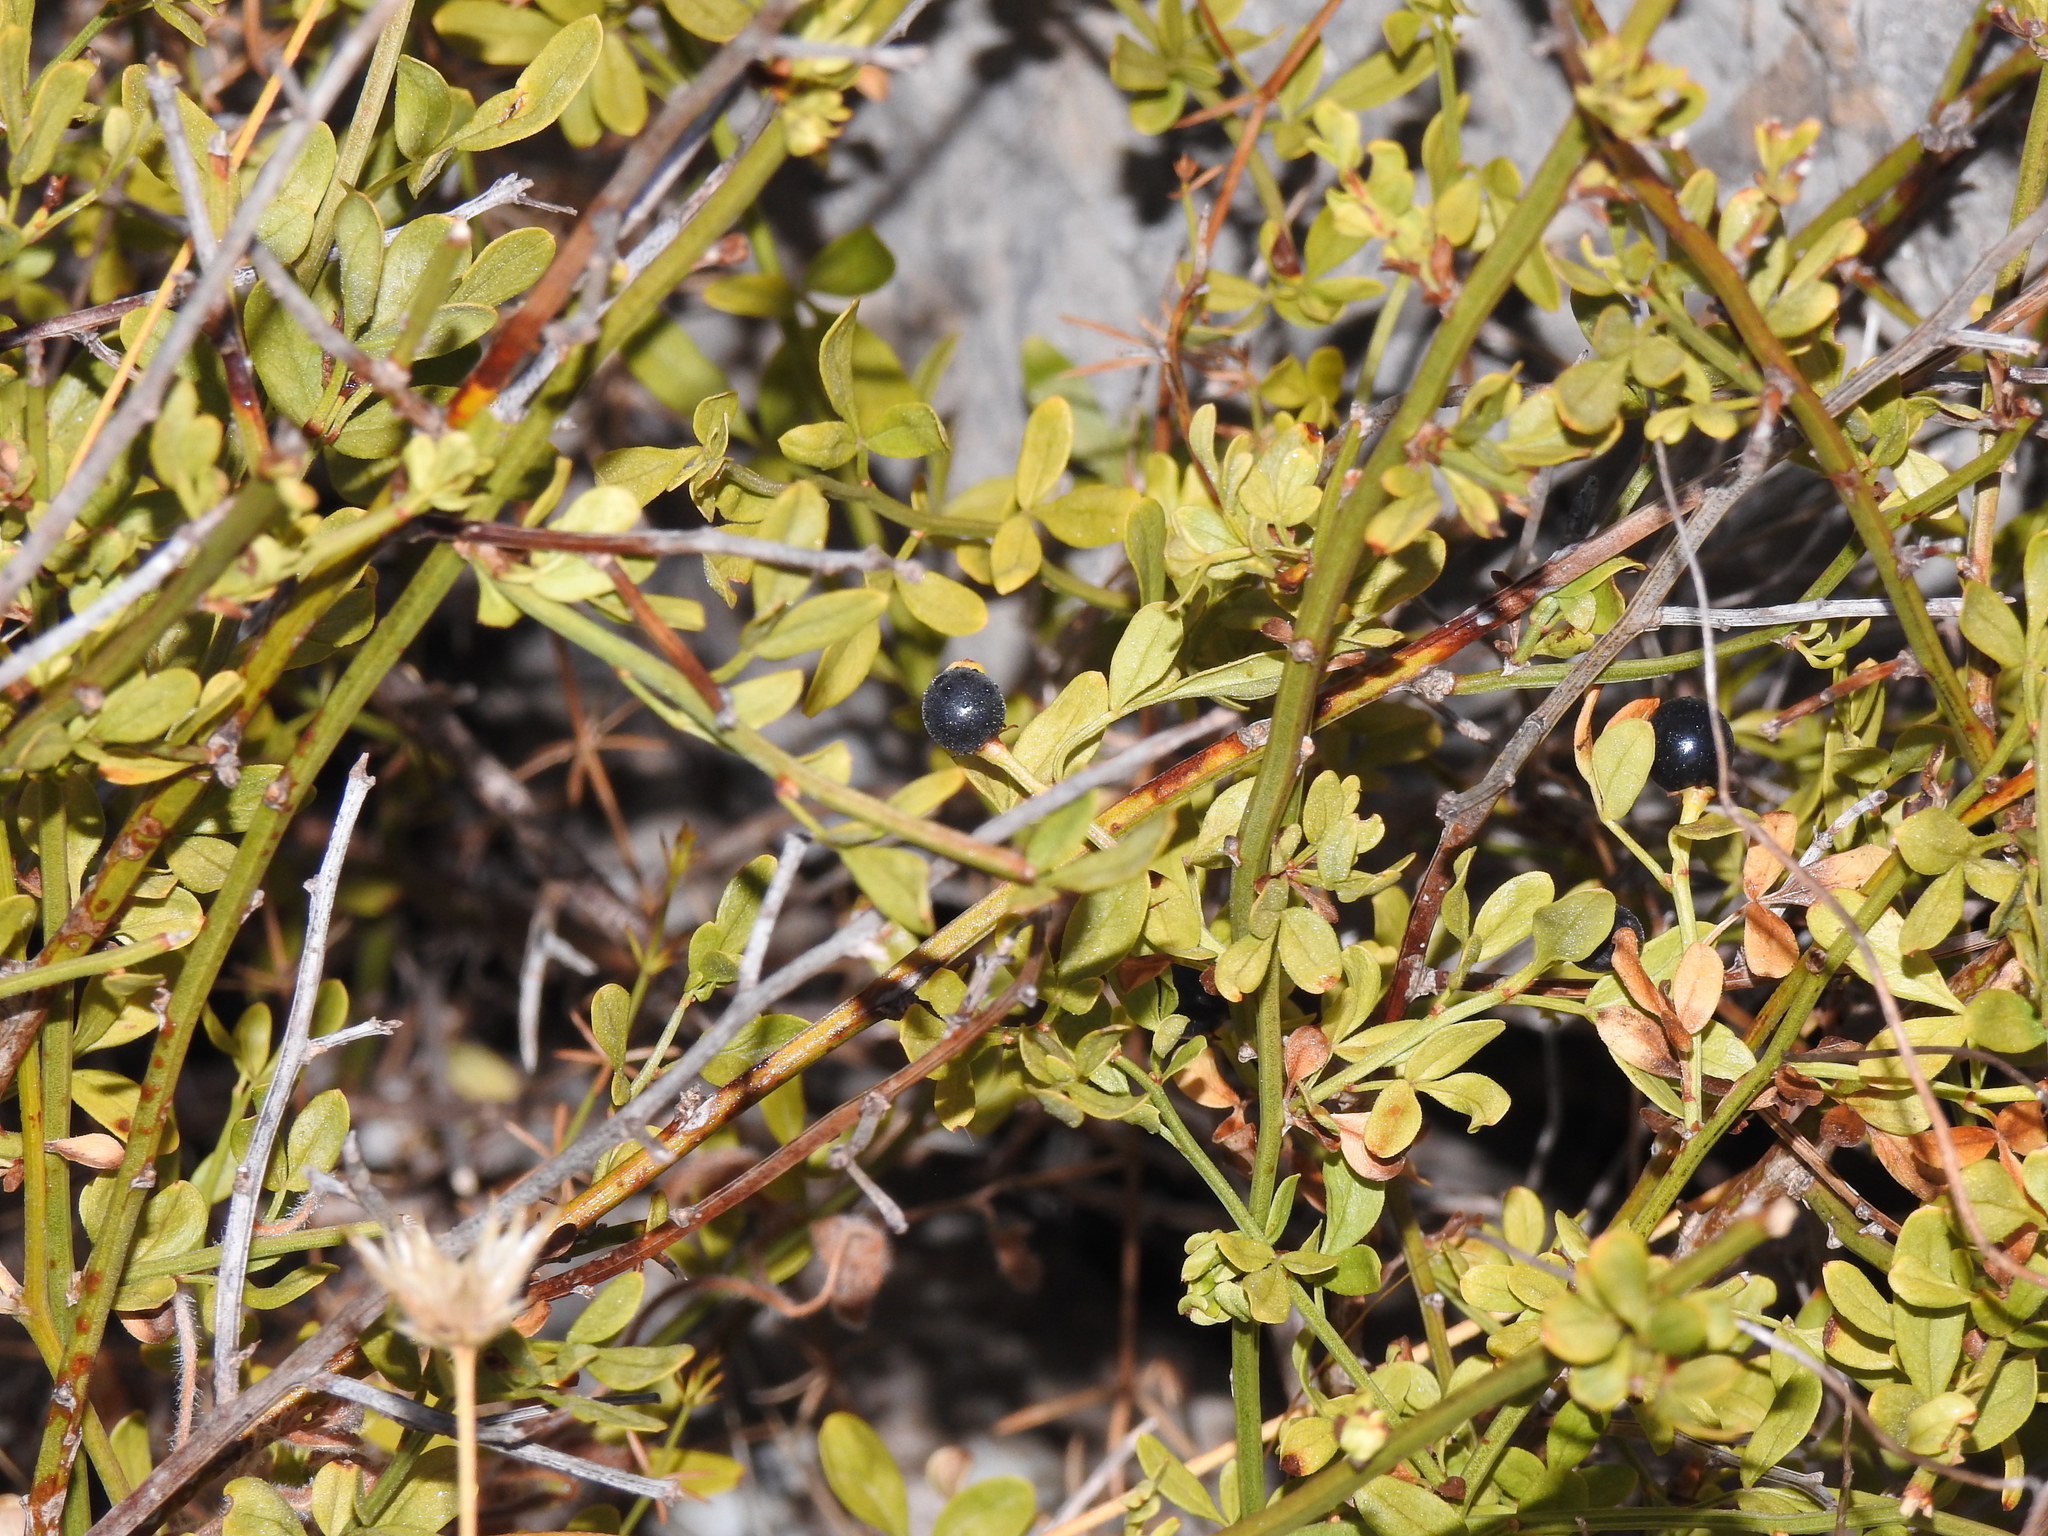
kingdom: Plantae
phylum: Tracheophyta
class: Magnoliopsida
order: Lamiales
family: Oleaceae
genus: Chrysojasminum
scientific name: Chrysojasminum fruticans
